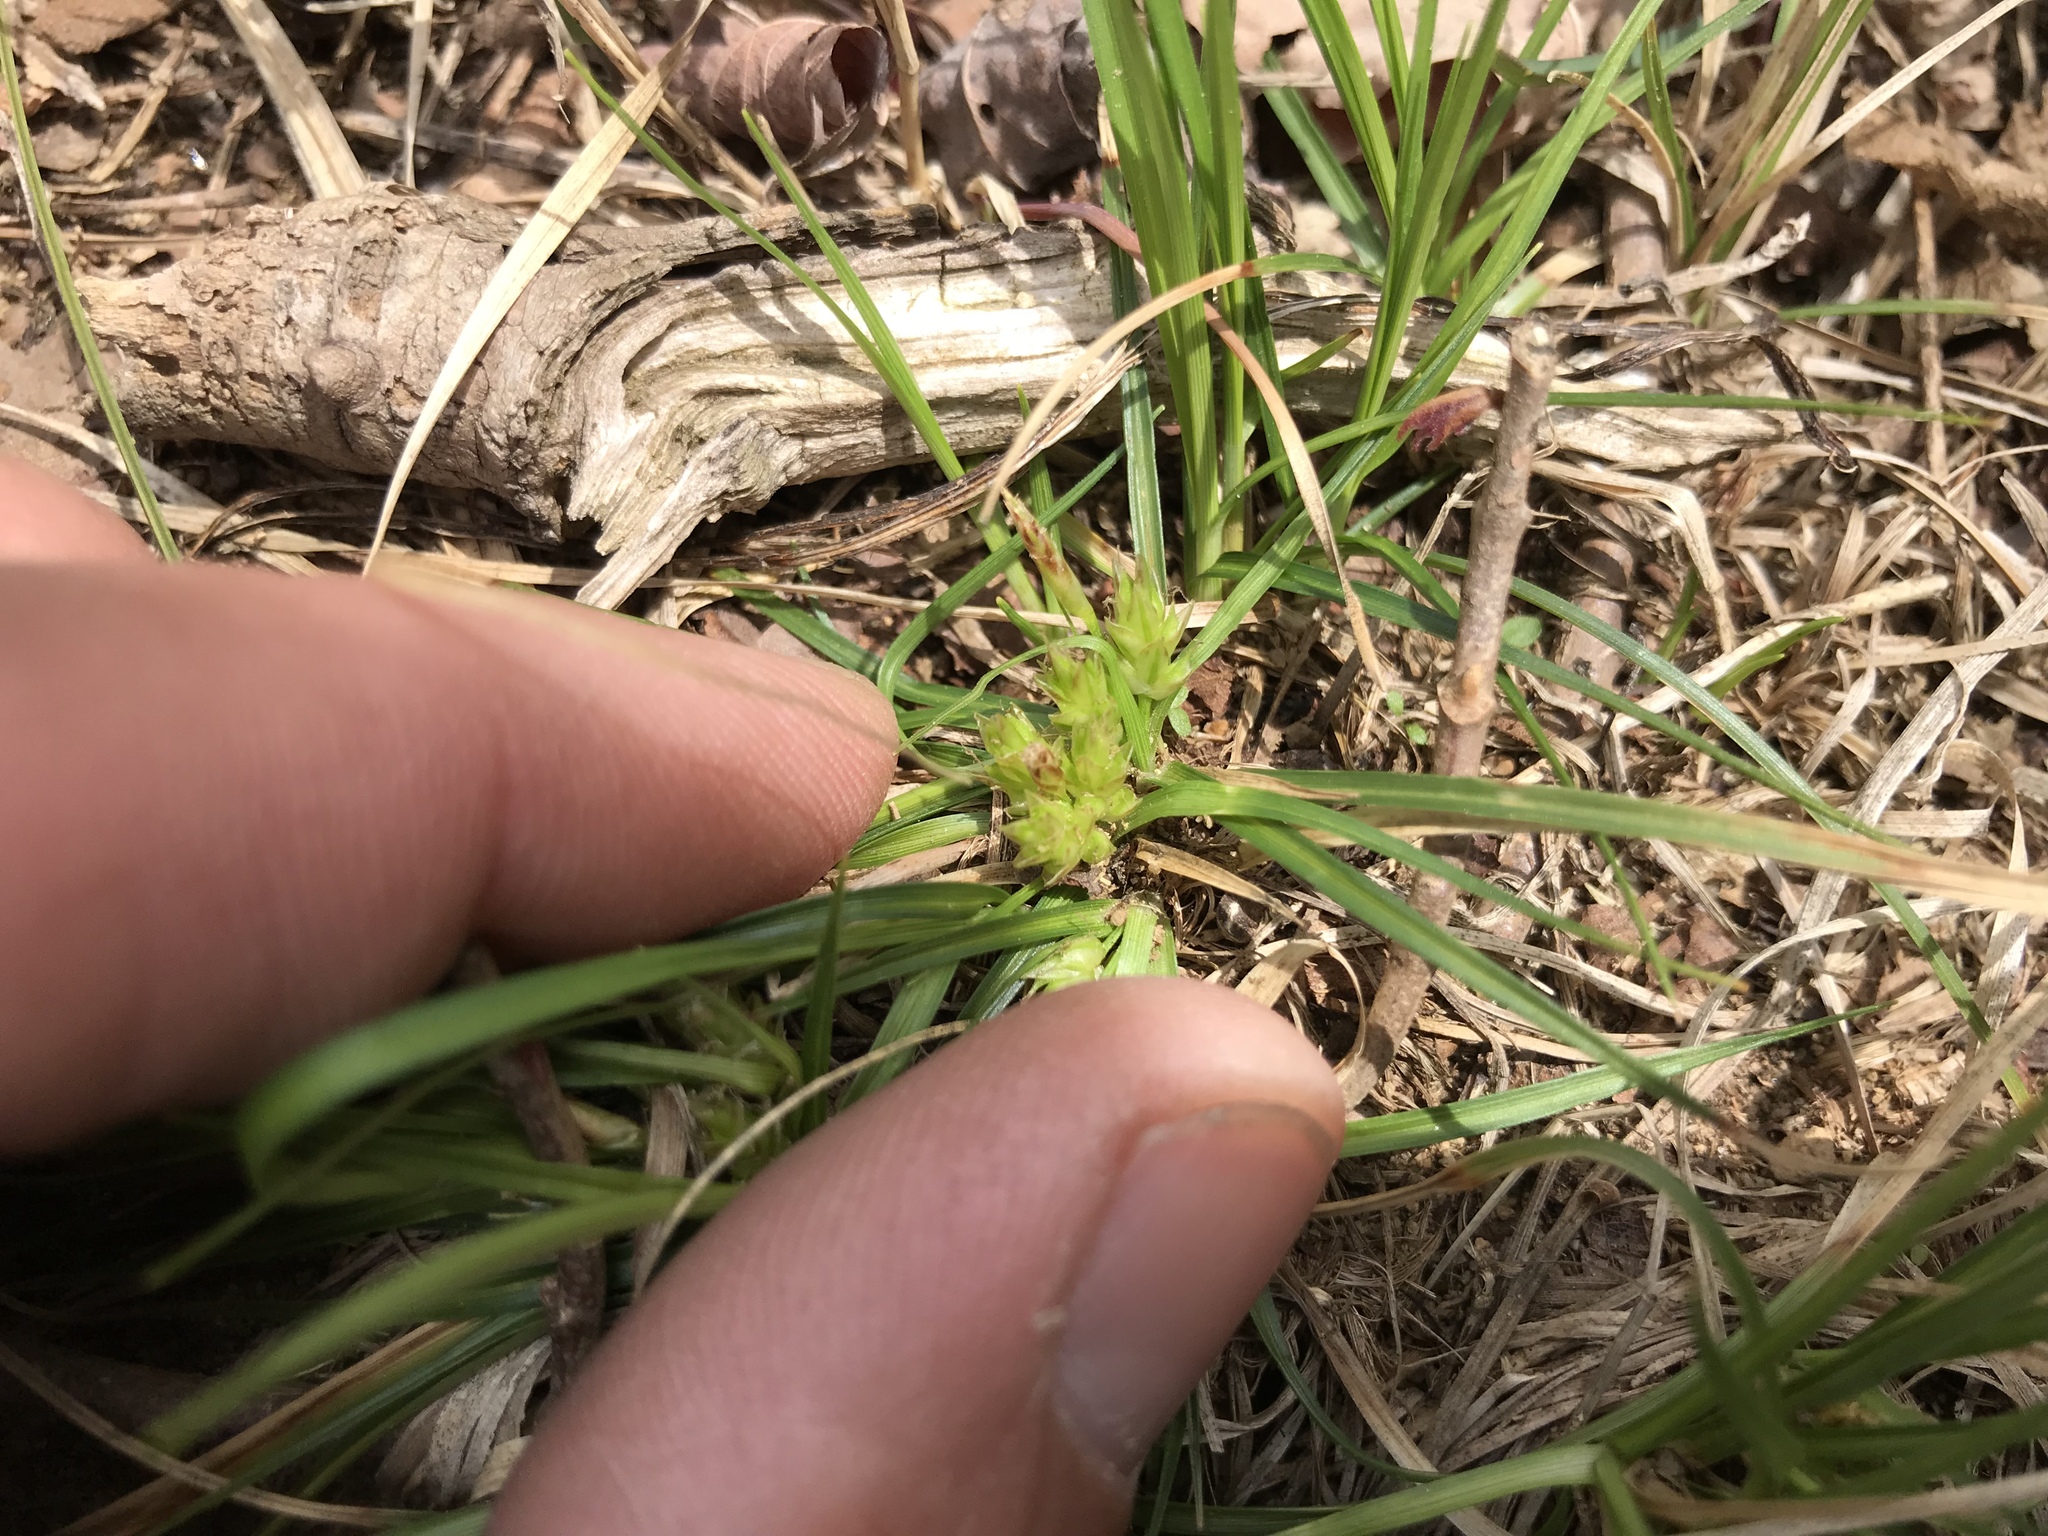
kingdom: Plantae
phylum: Tracheophyta
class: Liliopsida
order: Poales
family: Cyperaceae
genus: Carex
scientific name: Carex tonsa
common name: Bald sedge
